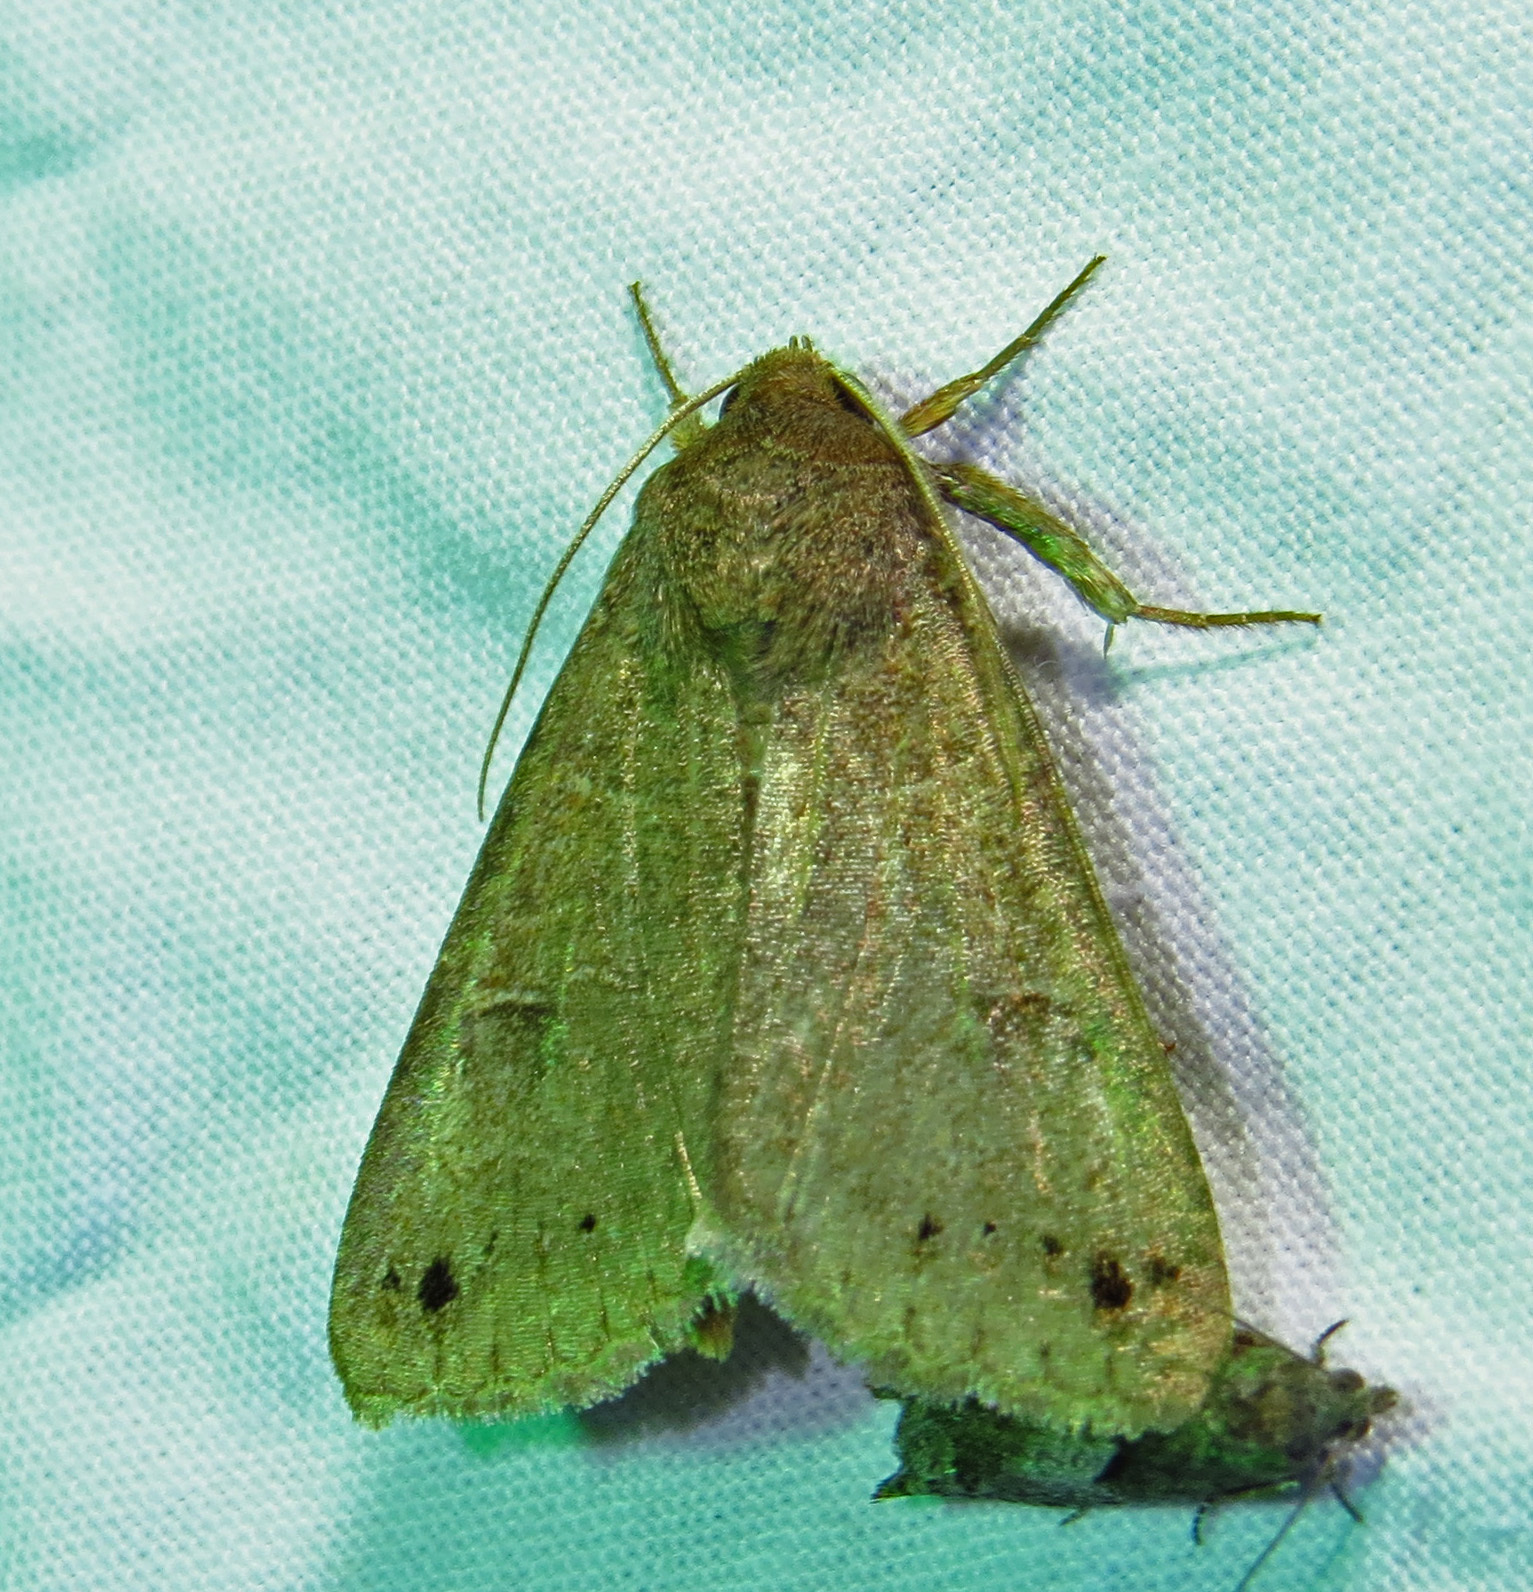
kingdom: Animalia
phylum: Arthropoda
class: Insecta
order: Lepidoptera
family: Erebidae
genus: Cissusa
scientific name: Cissusa spadix
